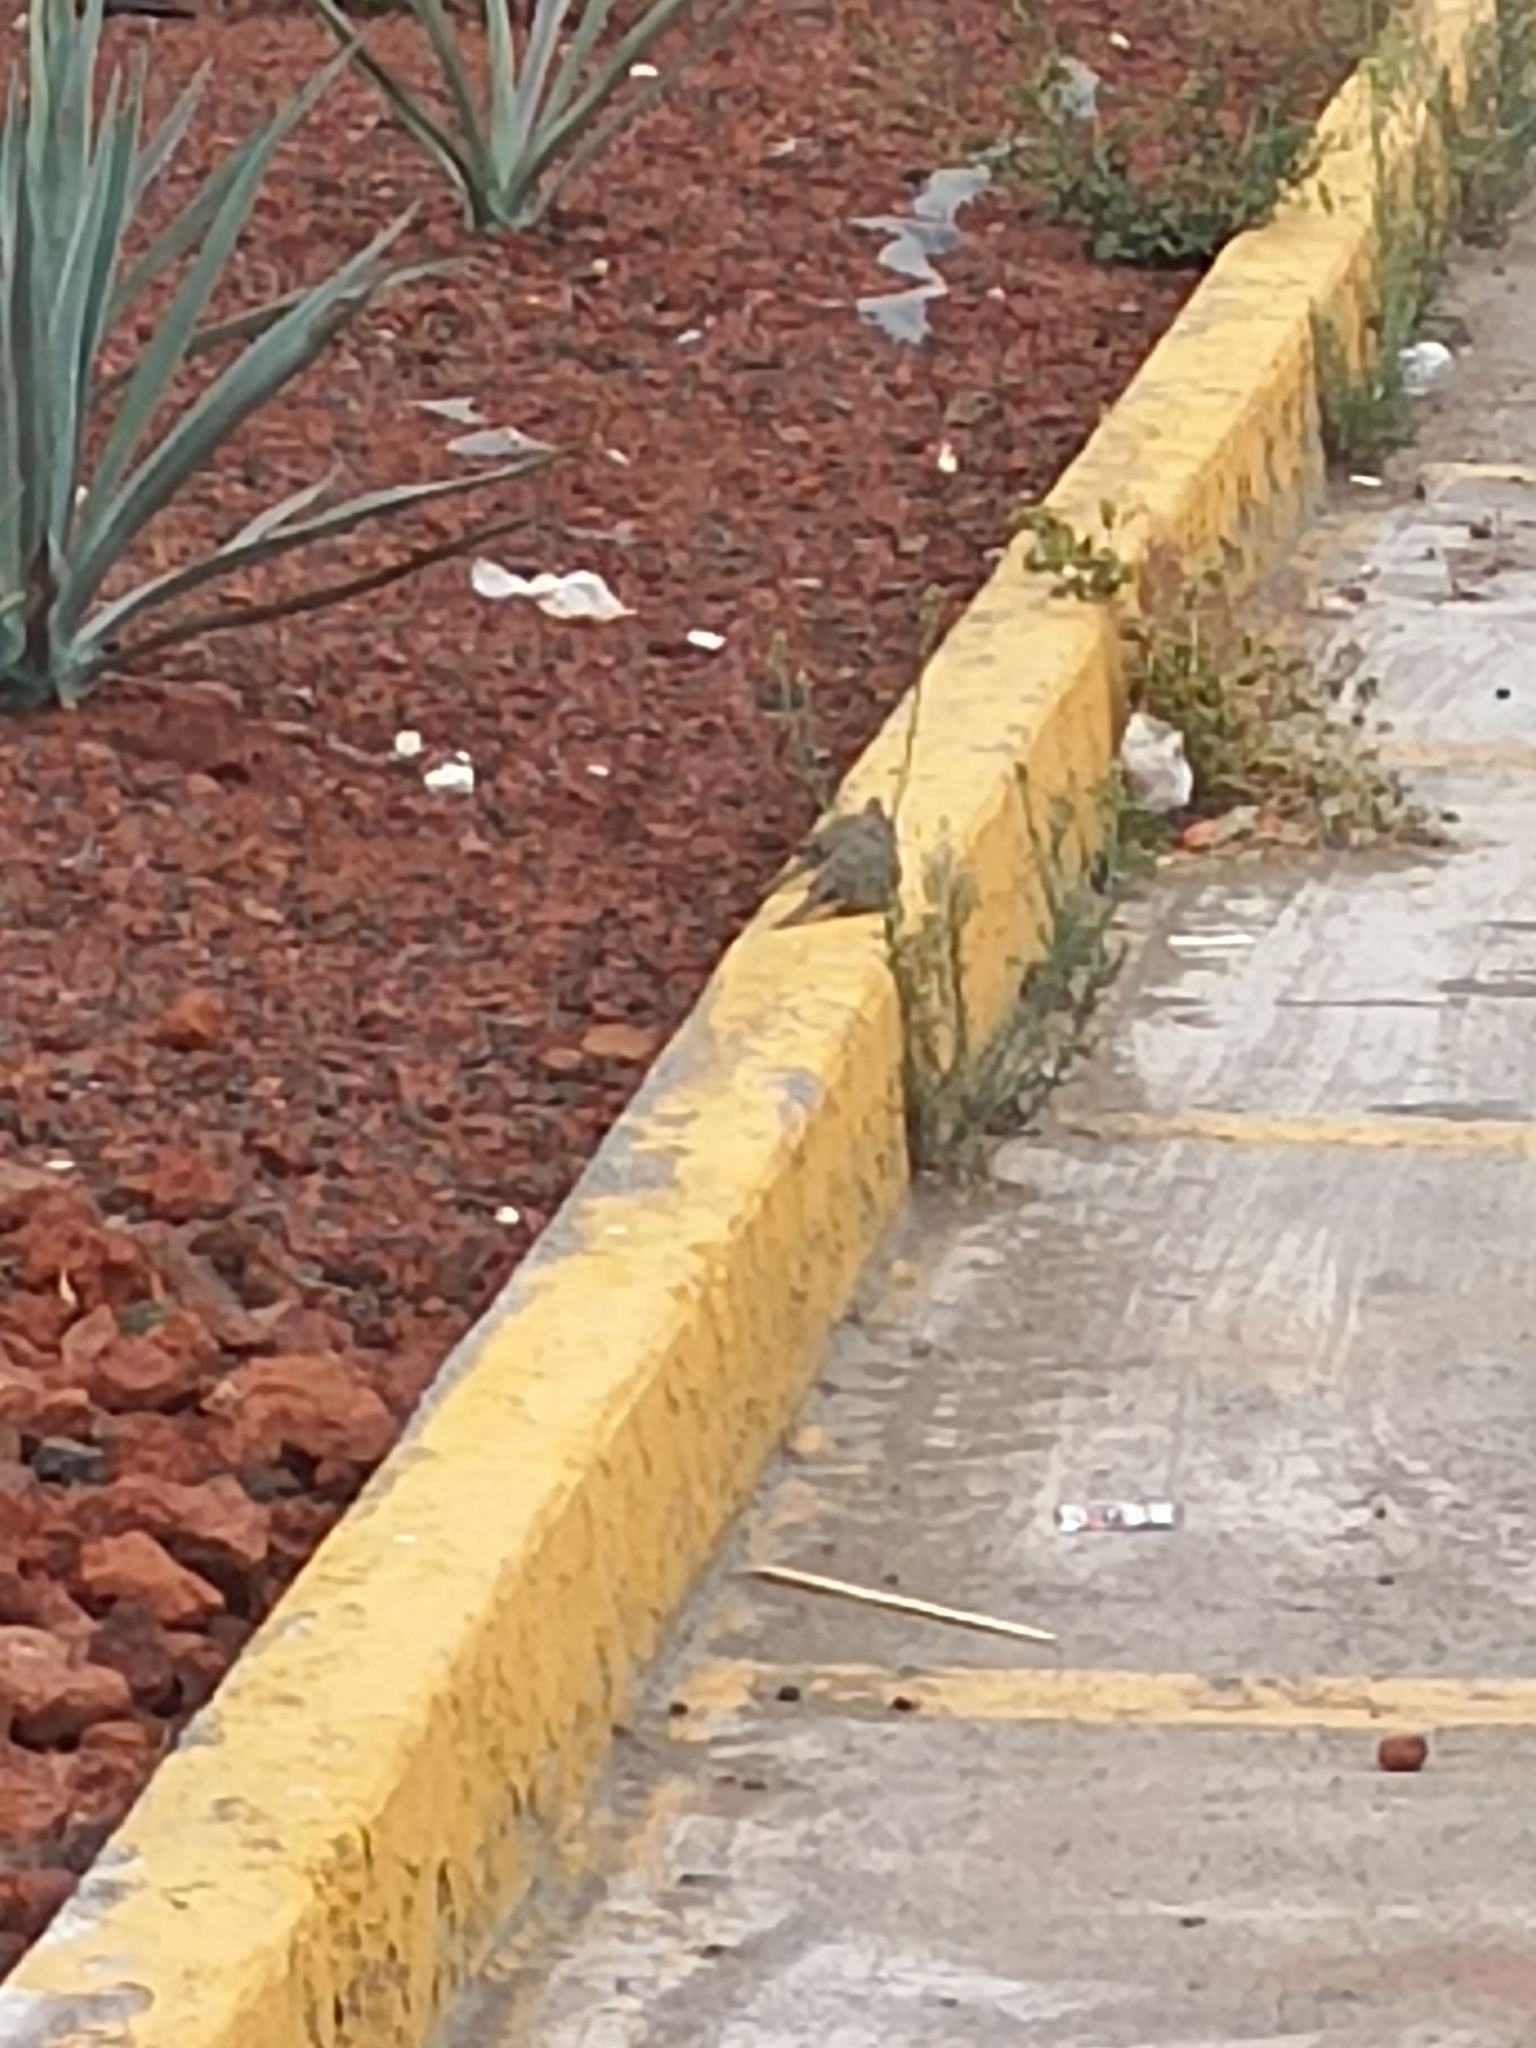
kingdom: Animalia
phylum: Chordata
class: Aves
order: Columbiformes
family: Columbidae
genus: Columbina
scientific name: Columbina inca
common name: Inca dove
